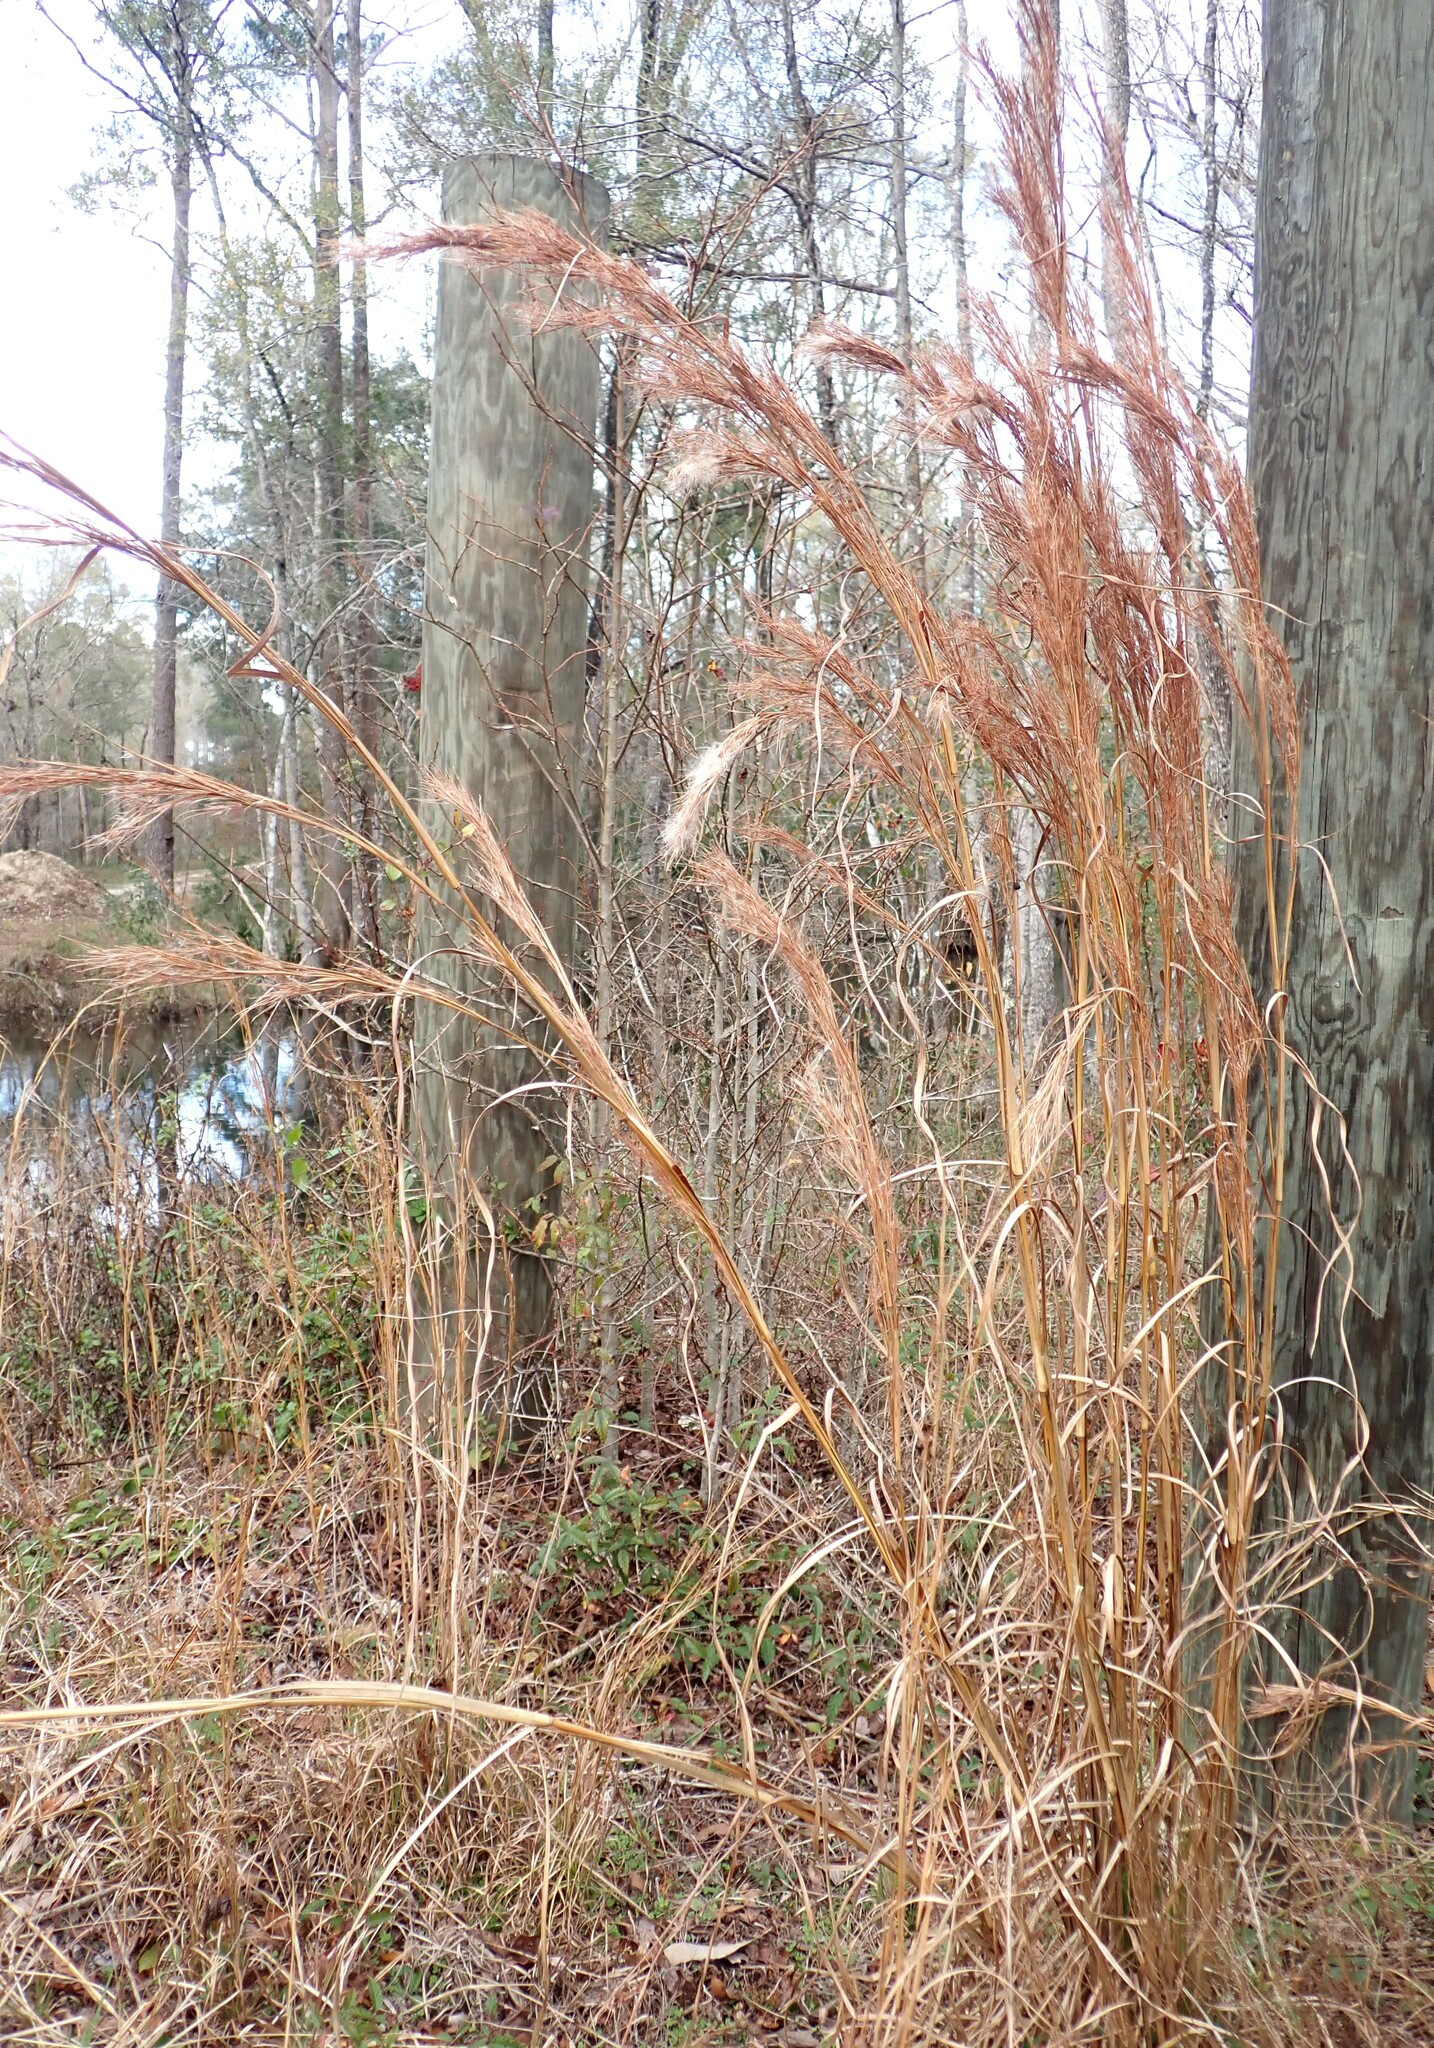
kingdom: Plantae
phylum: Tracheophyta
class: Liliopsida
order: Poales
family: Poaceae
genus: Andropogon
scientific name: Andropogon tenuispatheus
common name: Bushy bluestem
